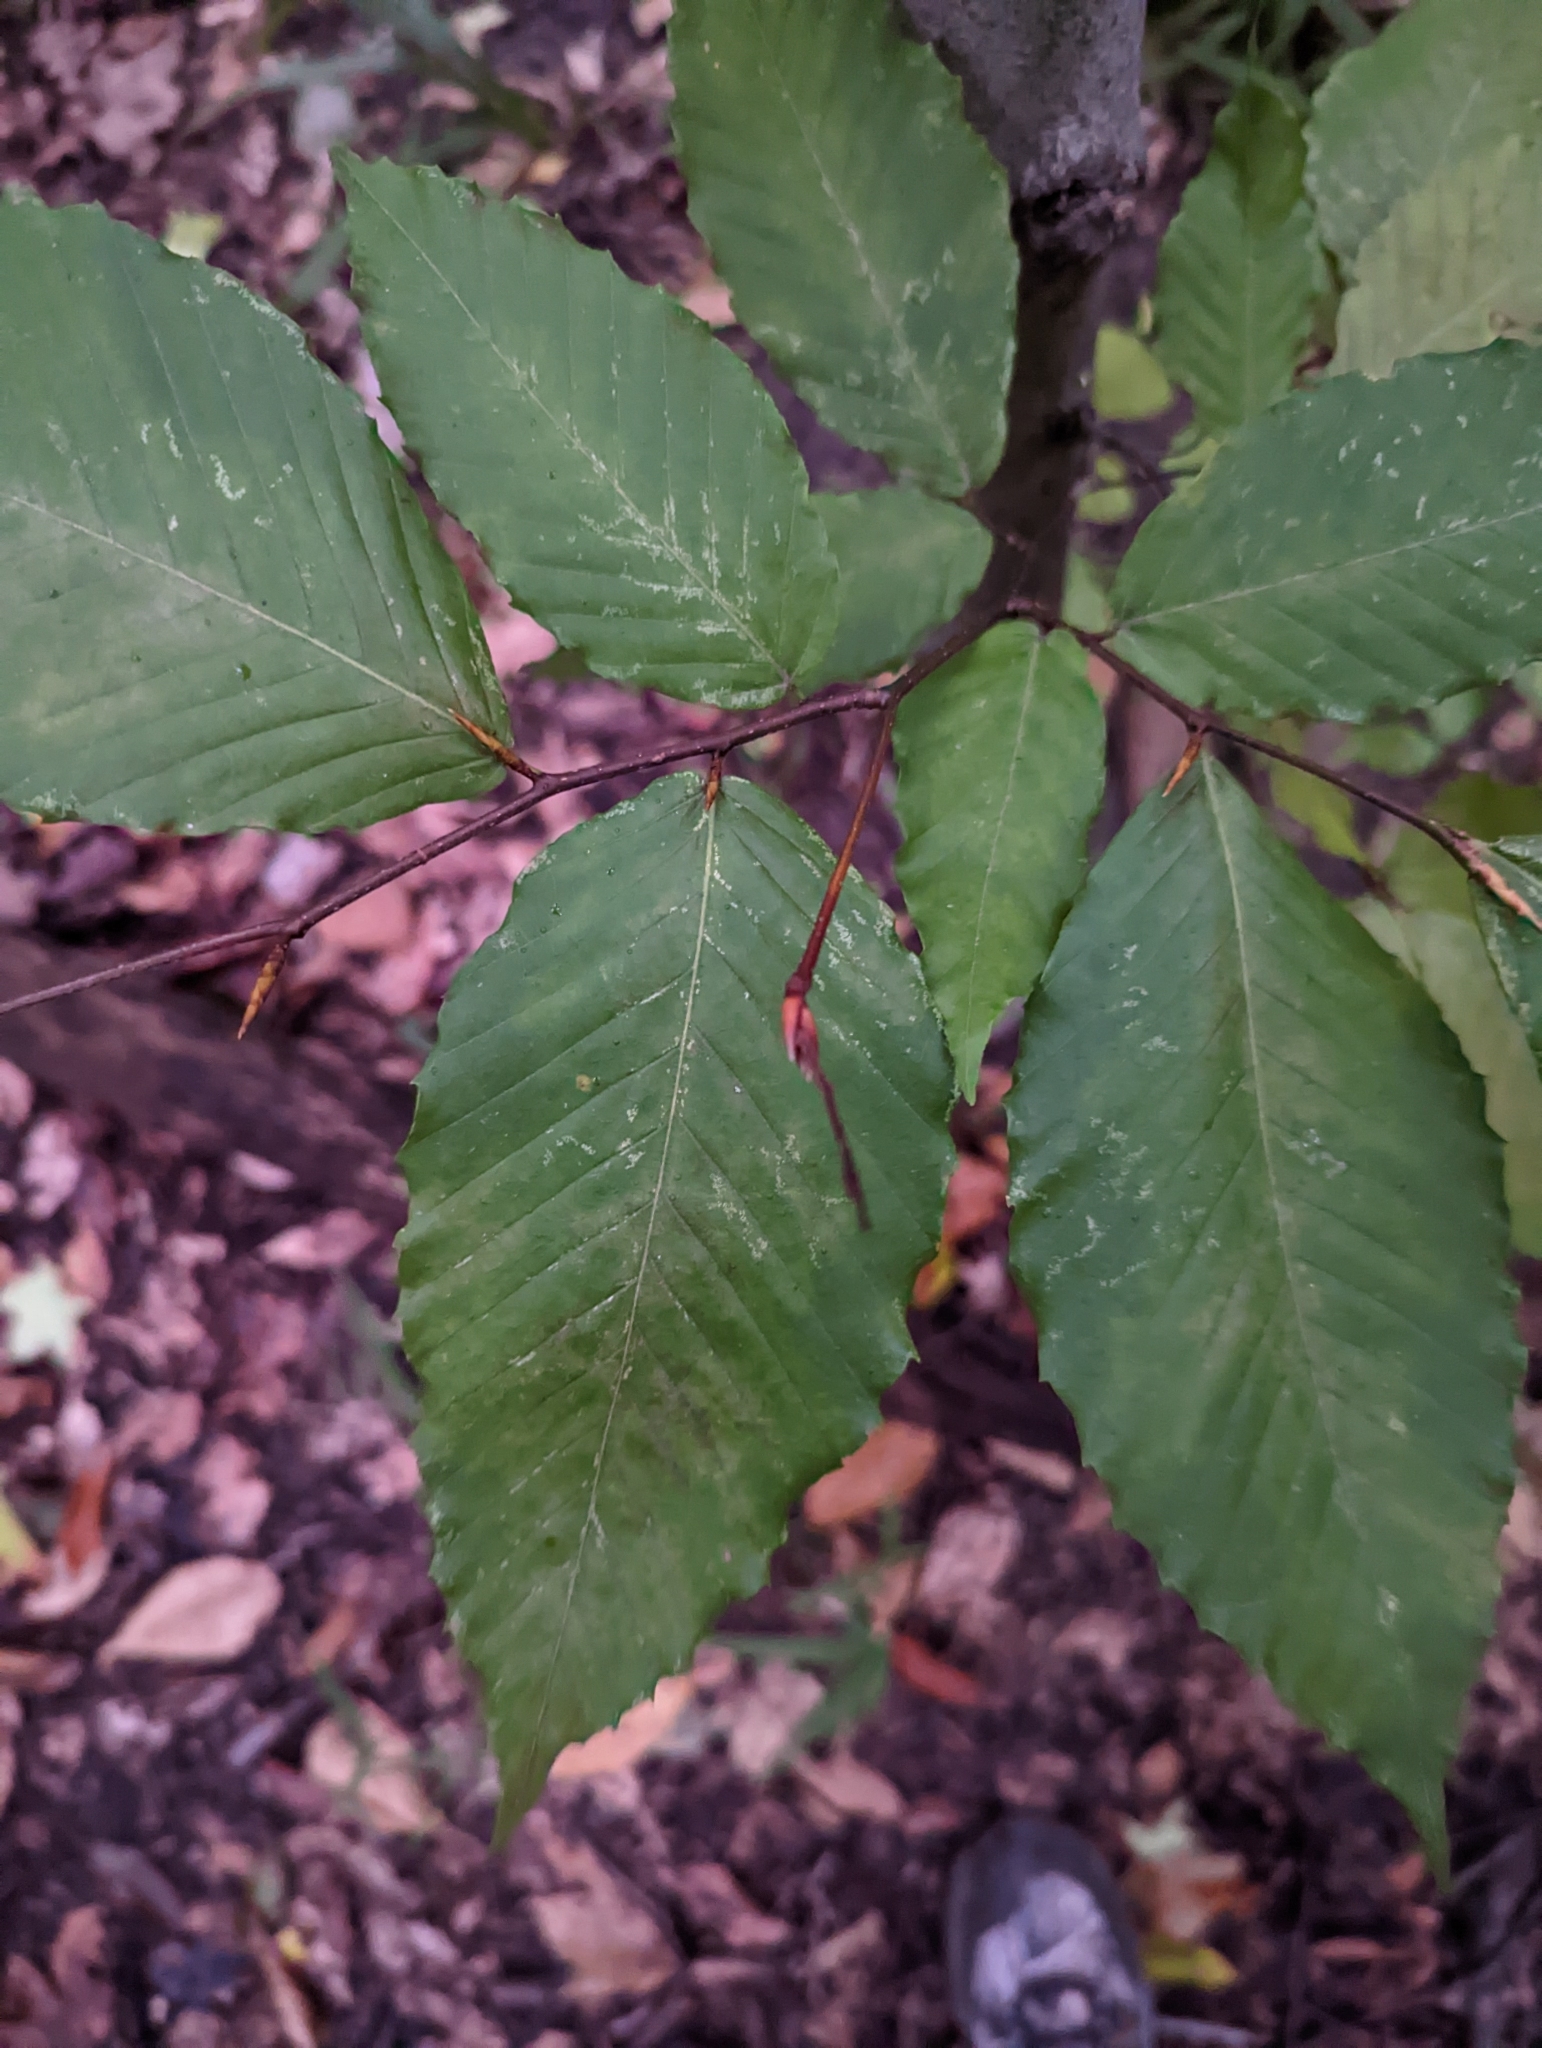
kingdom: Plantae
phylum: Tracheophyta
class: Magnoliopsida
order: Fagales
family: Fagaceae
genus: Fagus
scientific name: Fagus grandifolia
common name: American beech
